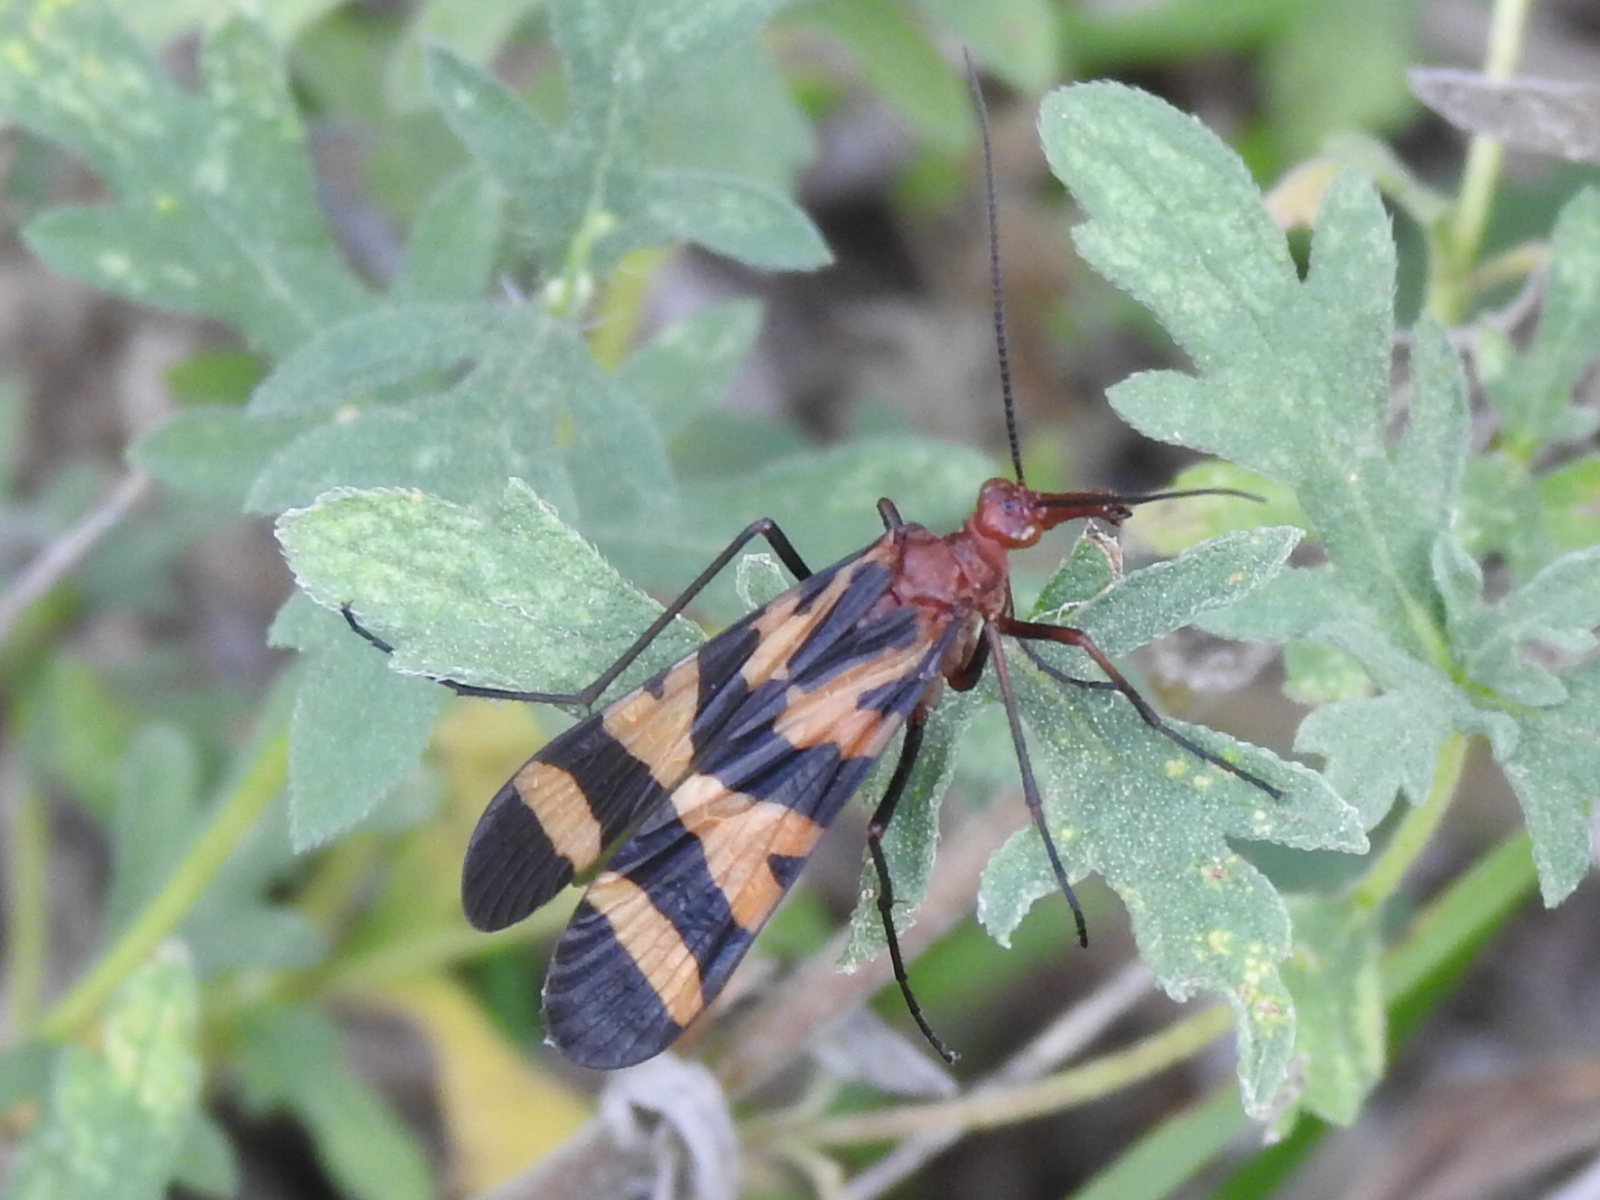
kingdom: Animalia
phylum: Arthropoda
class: Insecta
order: Mecoptera
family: Panorpidae
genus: Panorpa
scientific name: Panorpa nuptialis
